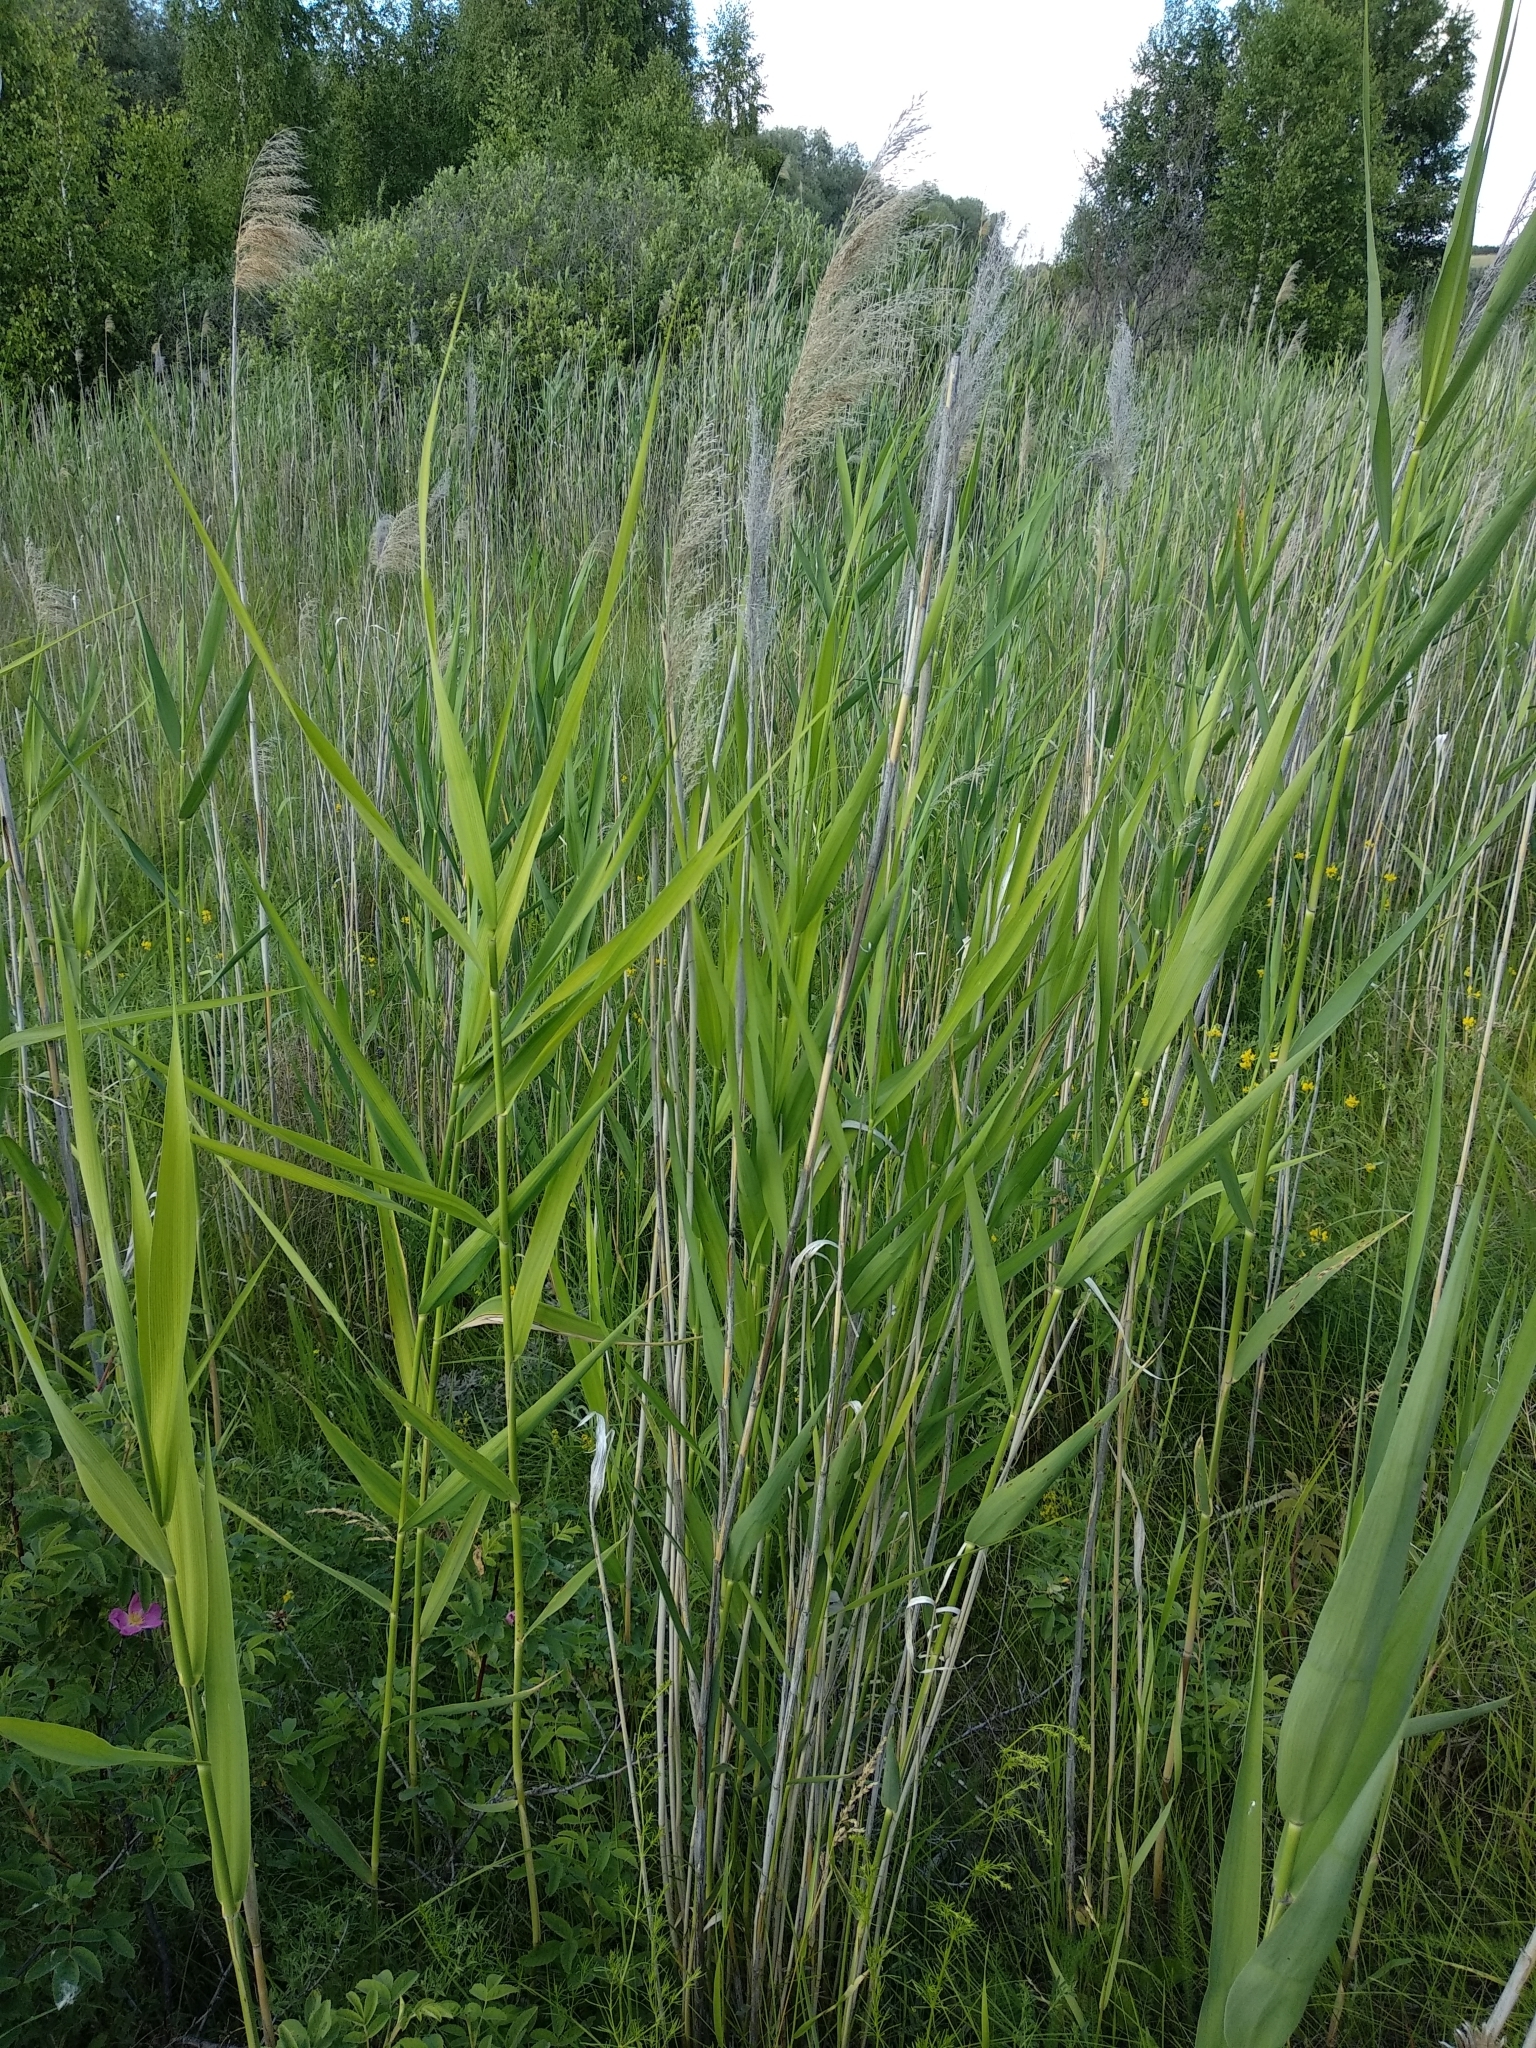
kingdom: Plantae
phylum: Tracheophyta
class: Liliopsida
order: Poales
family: Poaceae
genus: Phragmites
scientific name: Phragmites australis
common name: Common reed
